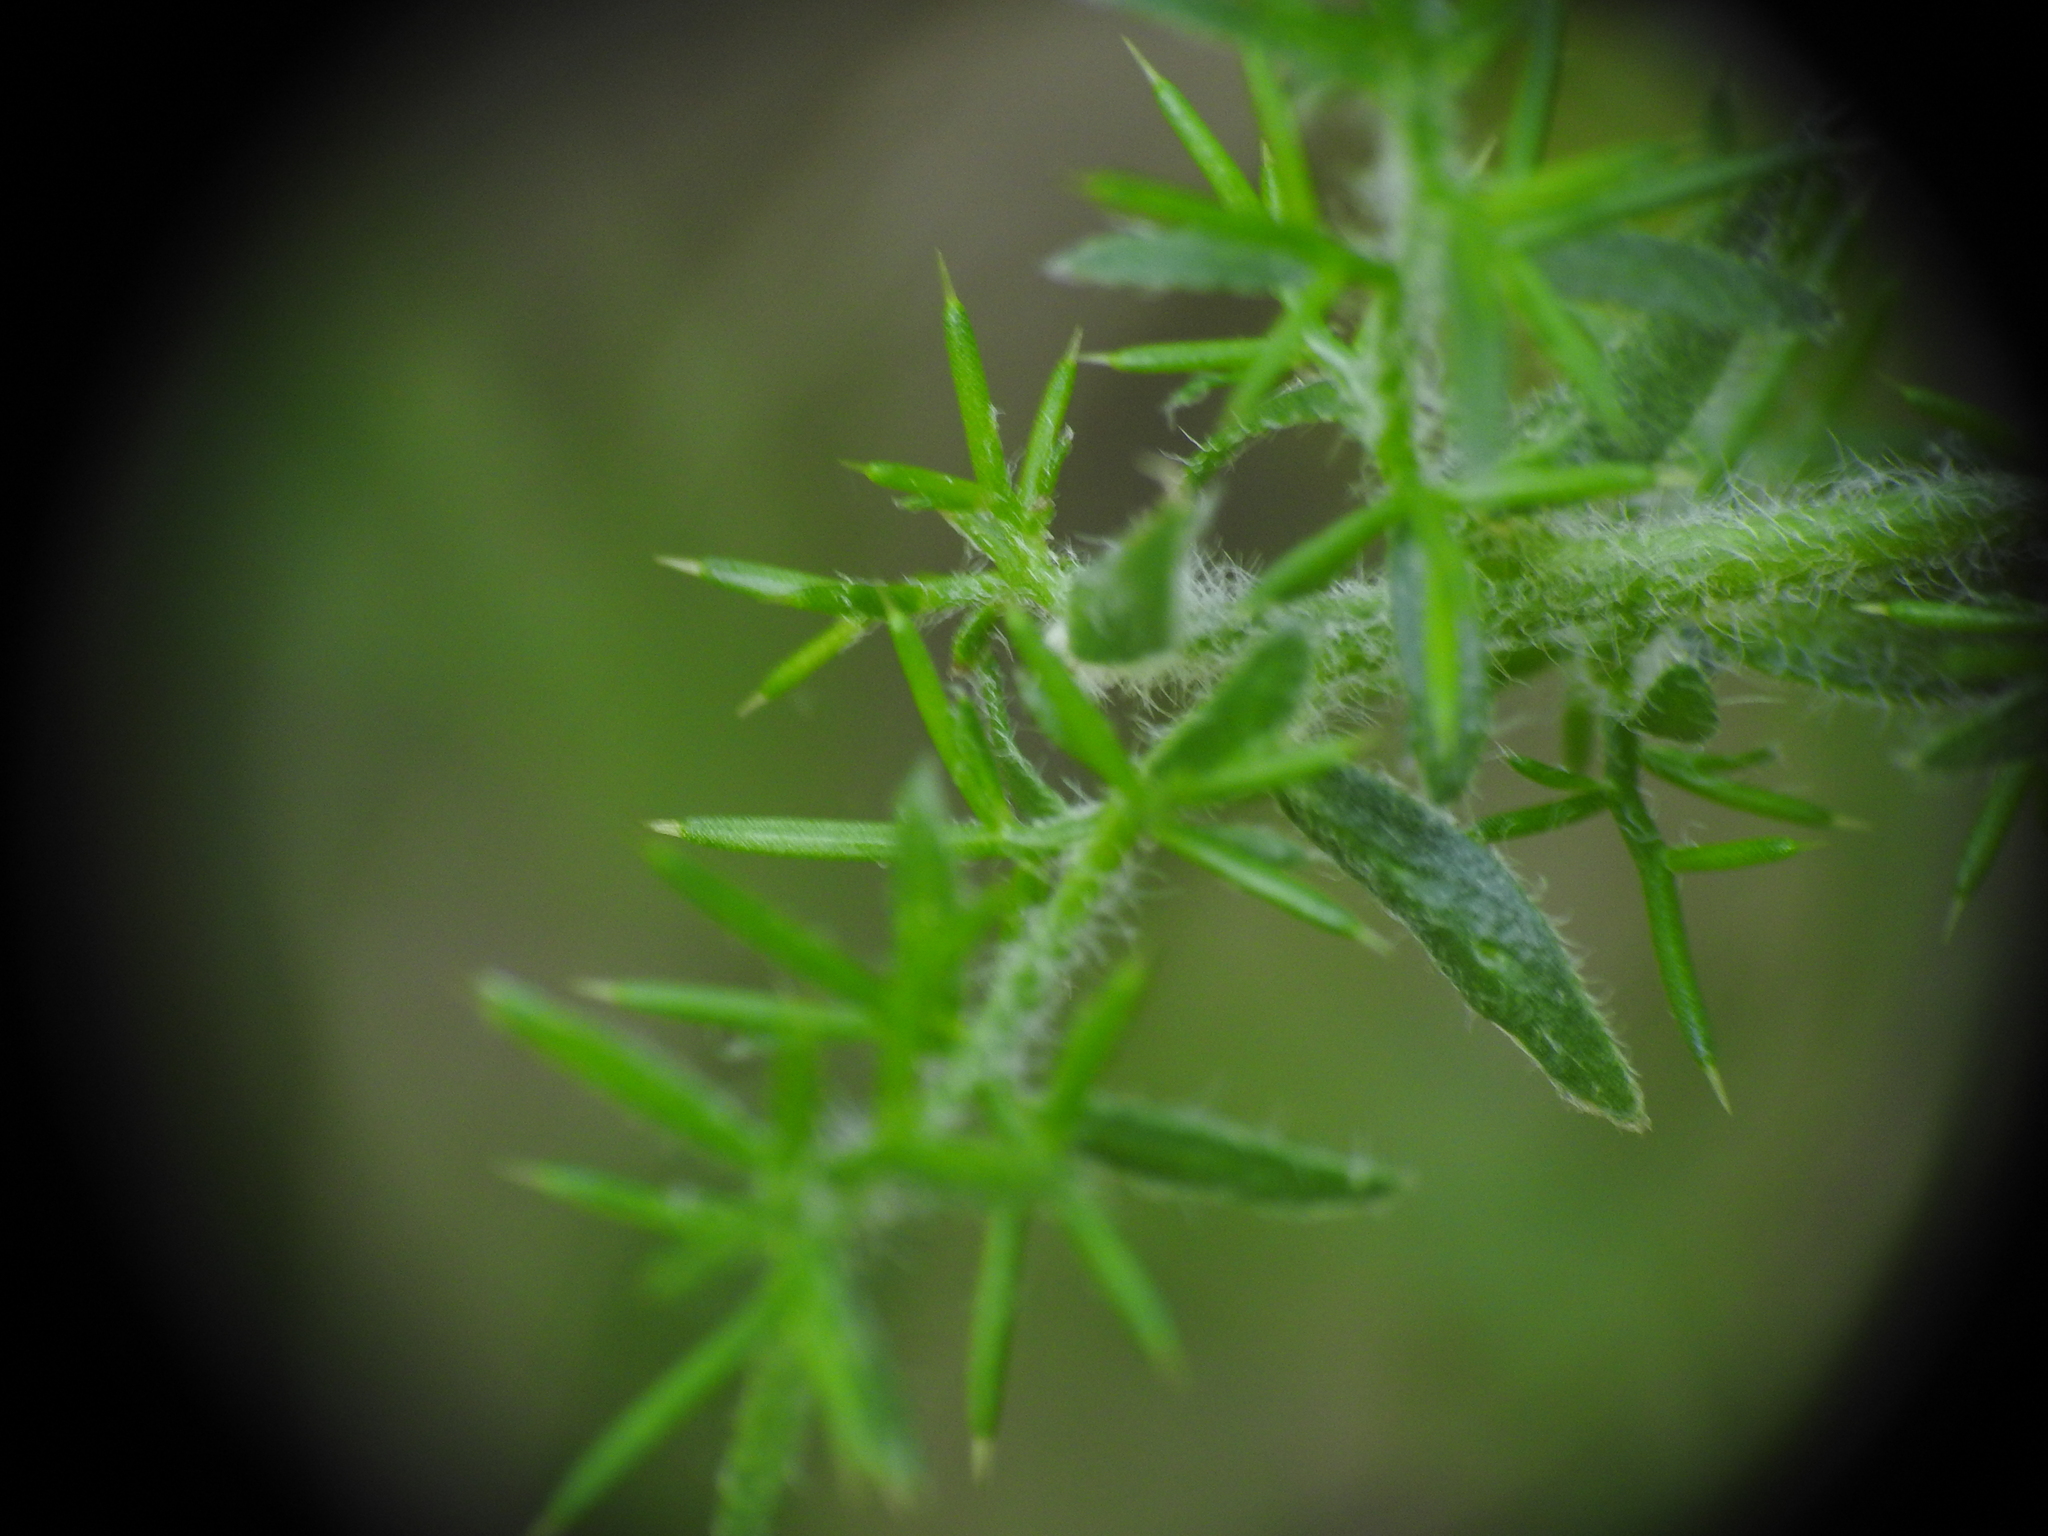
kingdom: Plantae
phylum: Tracheophyta
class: Magnoliopsida
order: Fabales
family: Fabaceae
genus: Genista
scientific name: Genista hispanica
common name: Spanish gorse
